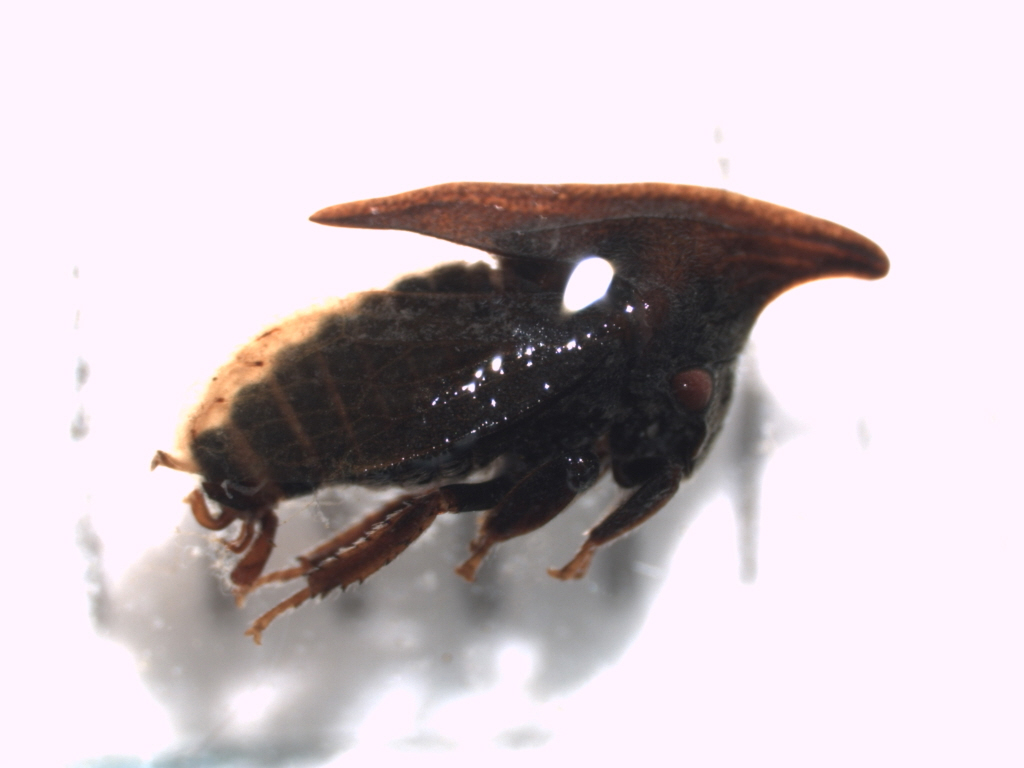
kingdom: Animalia
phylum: Arthropoda
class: Insecta
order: Hemiptera
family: Membracidae
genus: Enchenopa
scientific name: Enchenopa latipes
